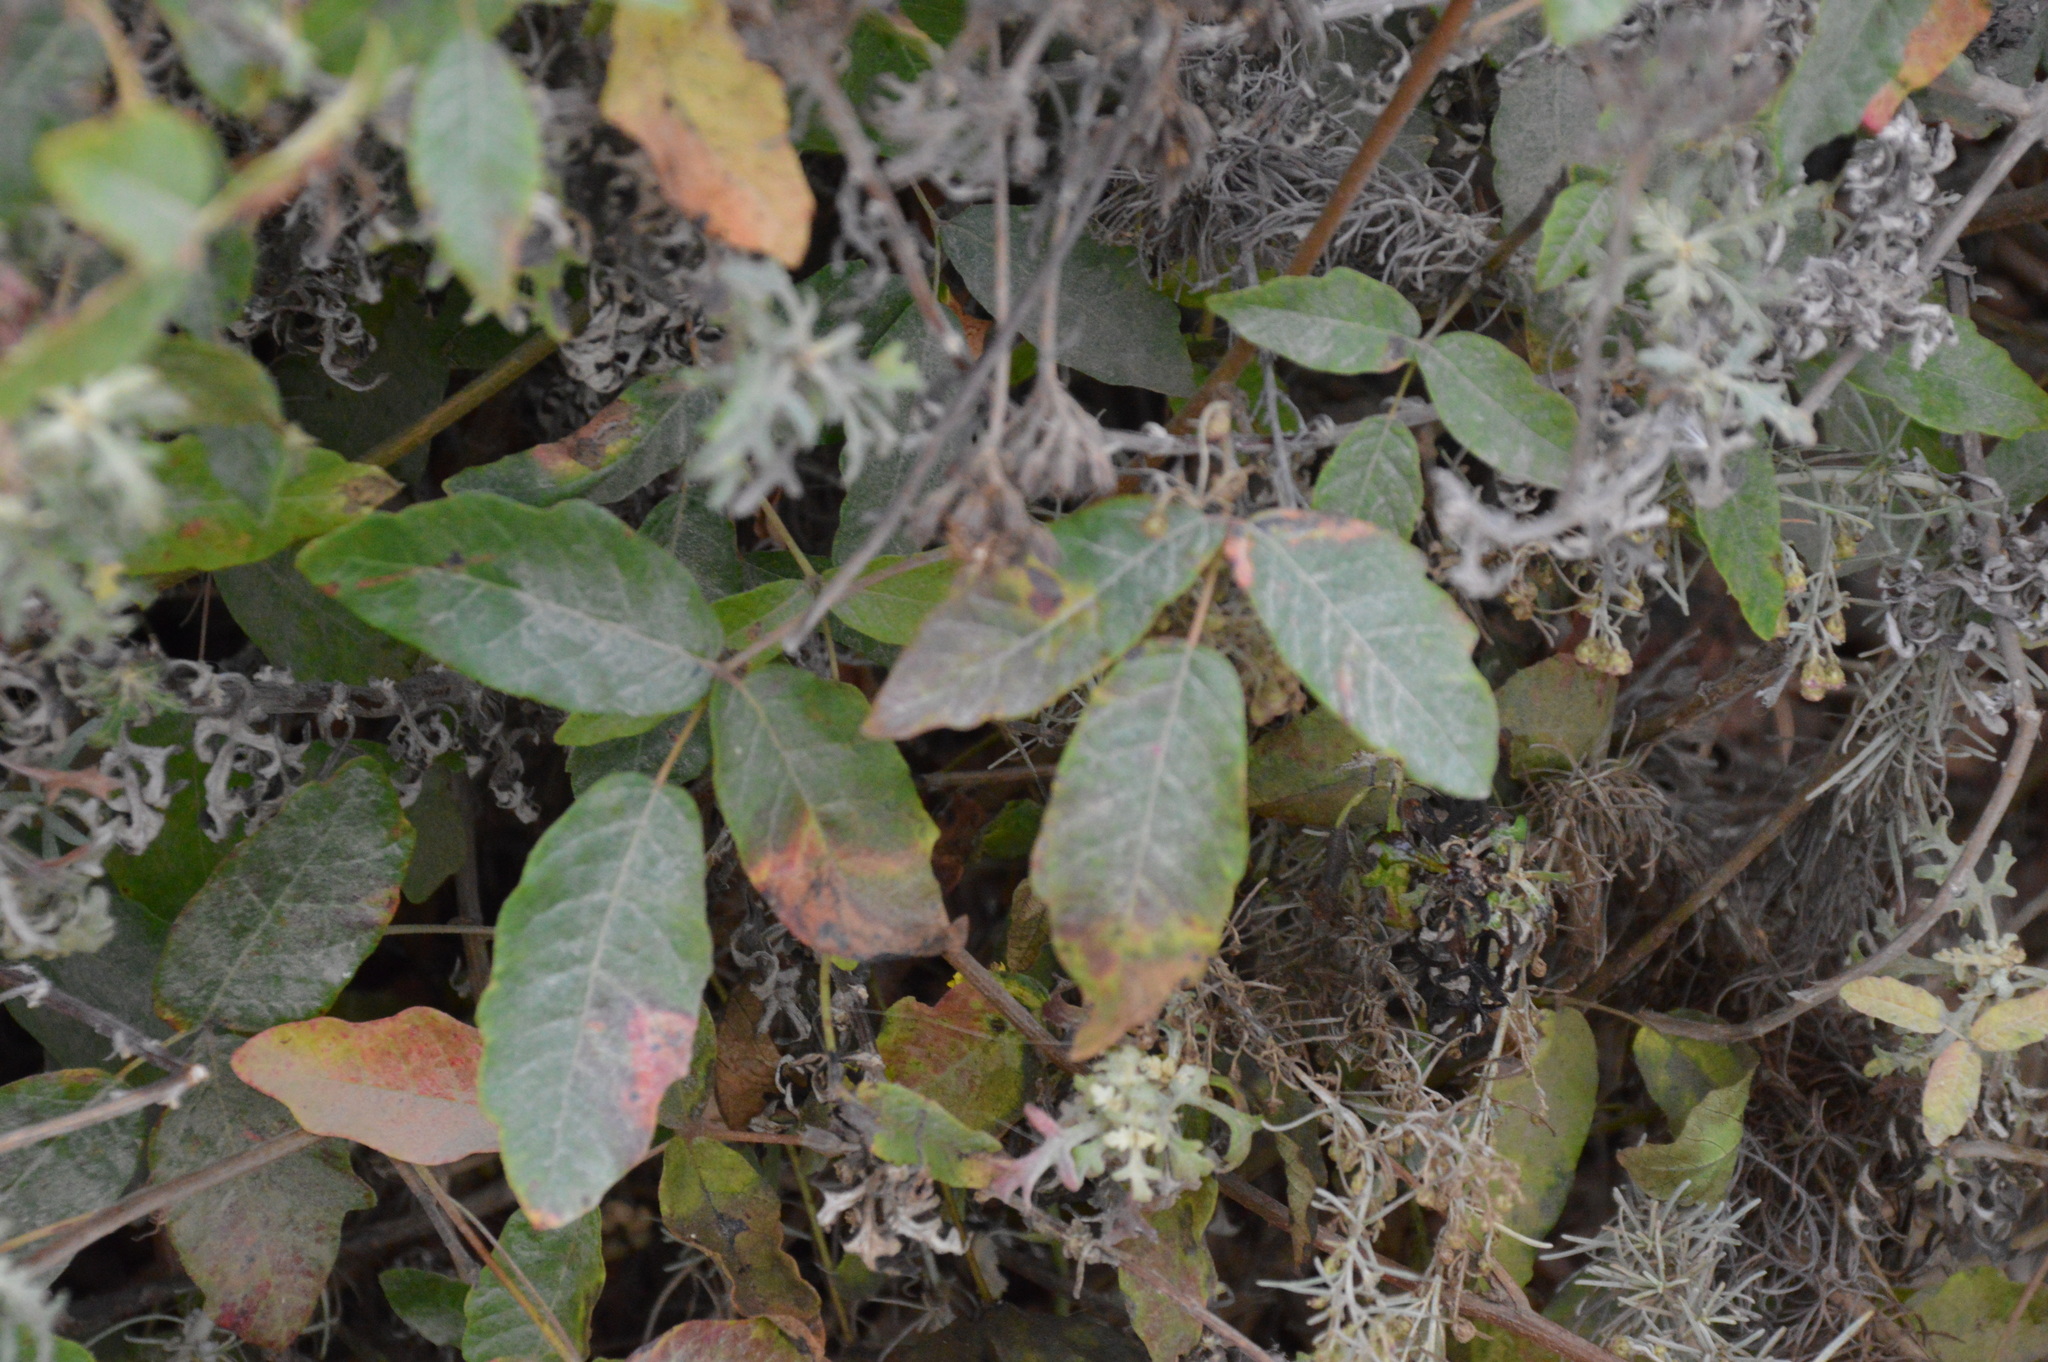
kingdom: Plantae
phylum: Tracheophyta
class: Magnoliopsida
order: Sapindales
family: Anacardiaceae
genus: Toxicodendron
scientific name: Toxicodendron diversilobum
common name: Pacific poison-oak
